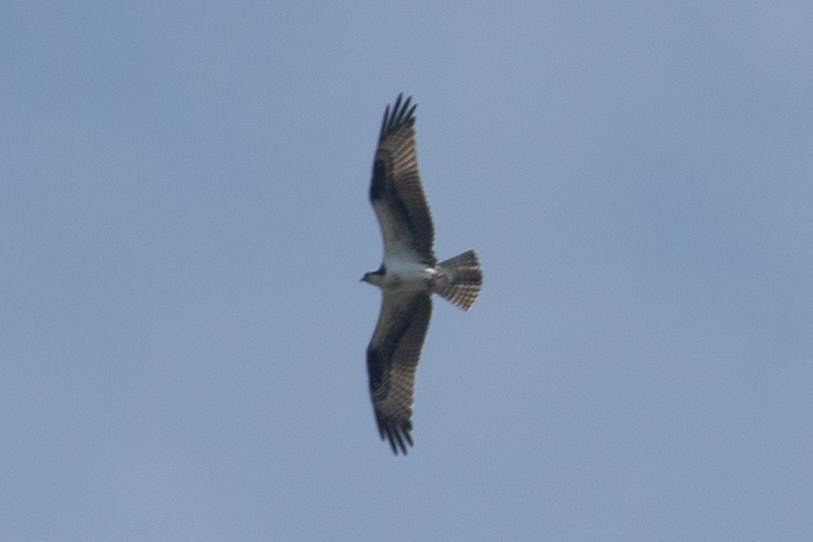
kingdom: Animalia
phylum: Chordata
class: Aves
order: Accipitriformes
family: Pandionidae
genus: Pandion
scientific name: Pandion haliaetus
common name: Osprey
